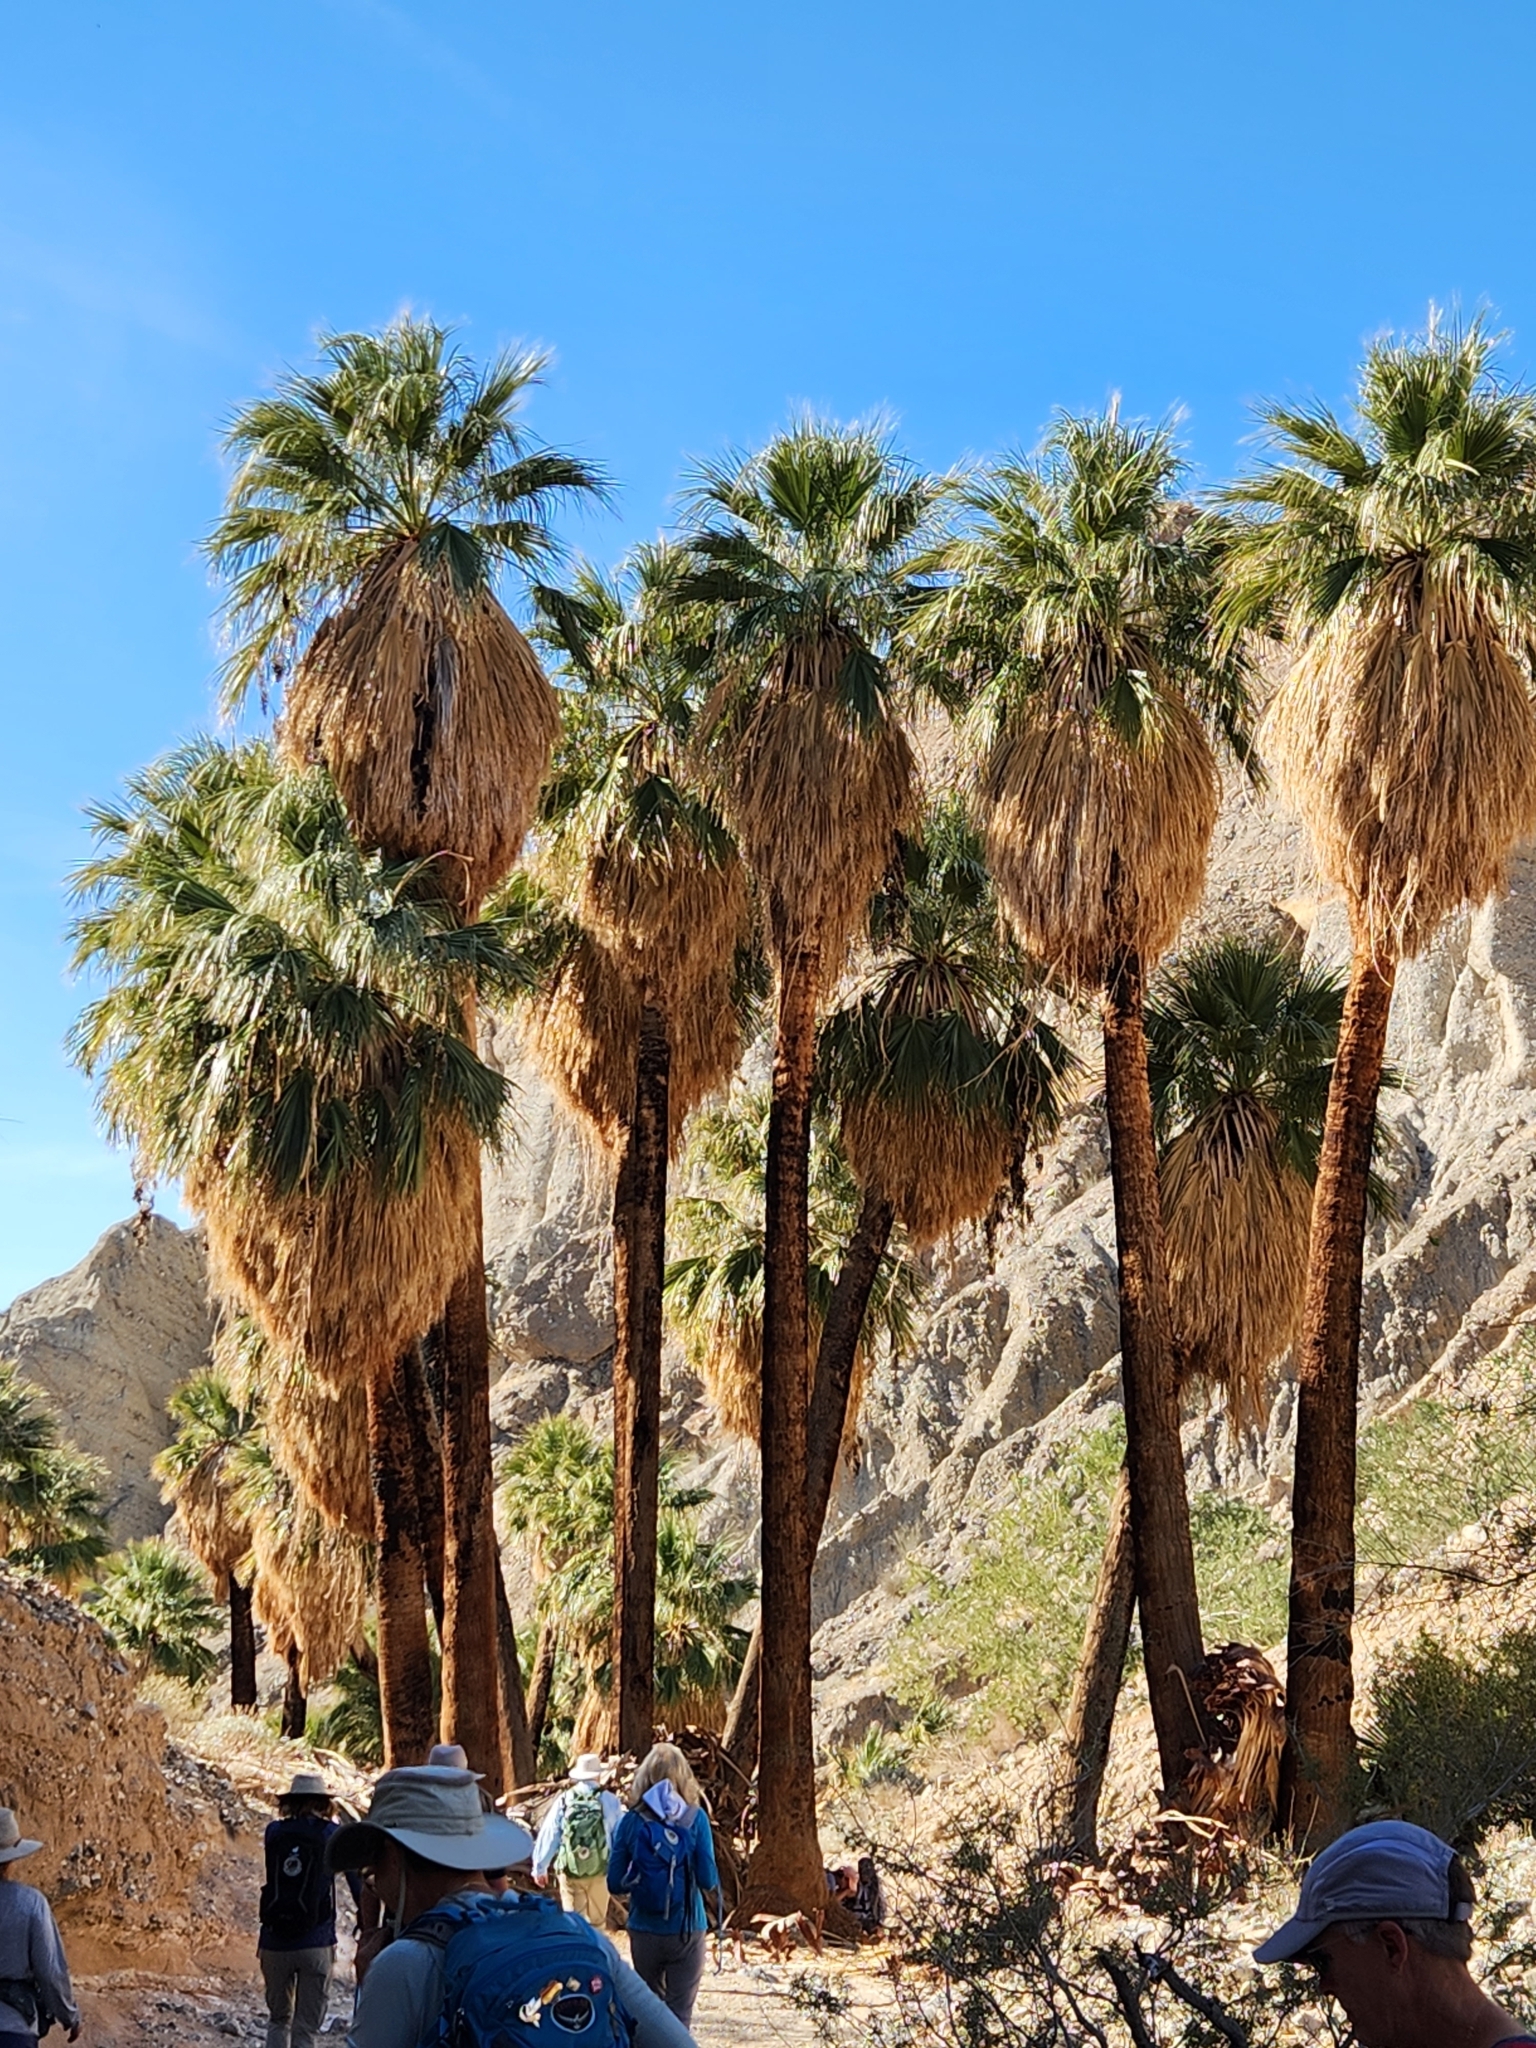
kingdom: Plantae
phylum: Tracheophyta
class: Liliopsida
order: Arecales
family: Arecaceae
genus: Washingtonia
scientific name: Washingtonia filifera
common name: California fan palm
